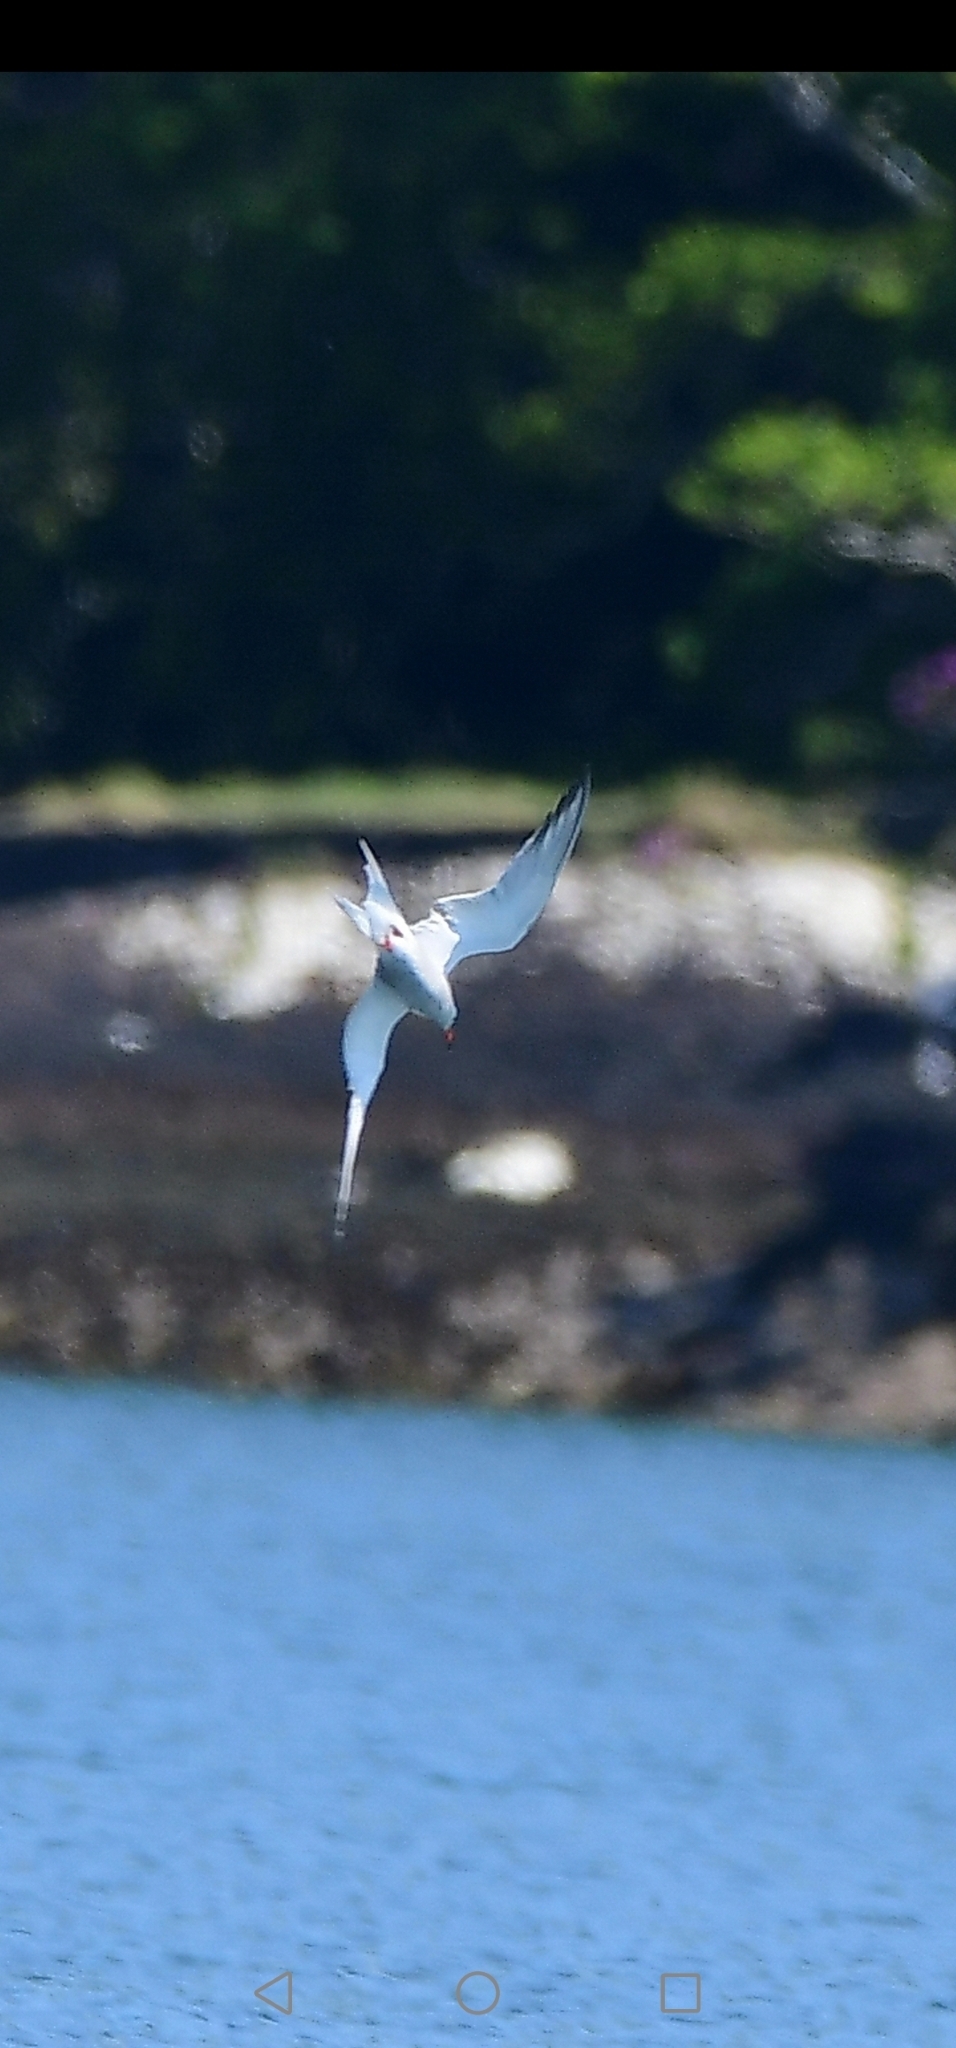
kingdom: Animalia
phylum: Chordata
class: Aves
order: Charadriiformes
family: Laridae
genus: Sterna
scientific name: Sterna hirundo
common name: Common tern
